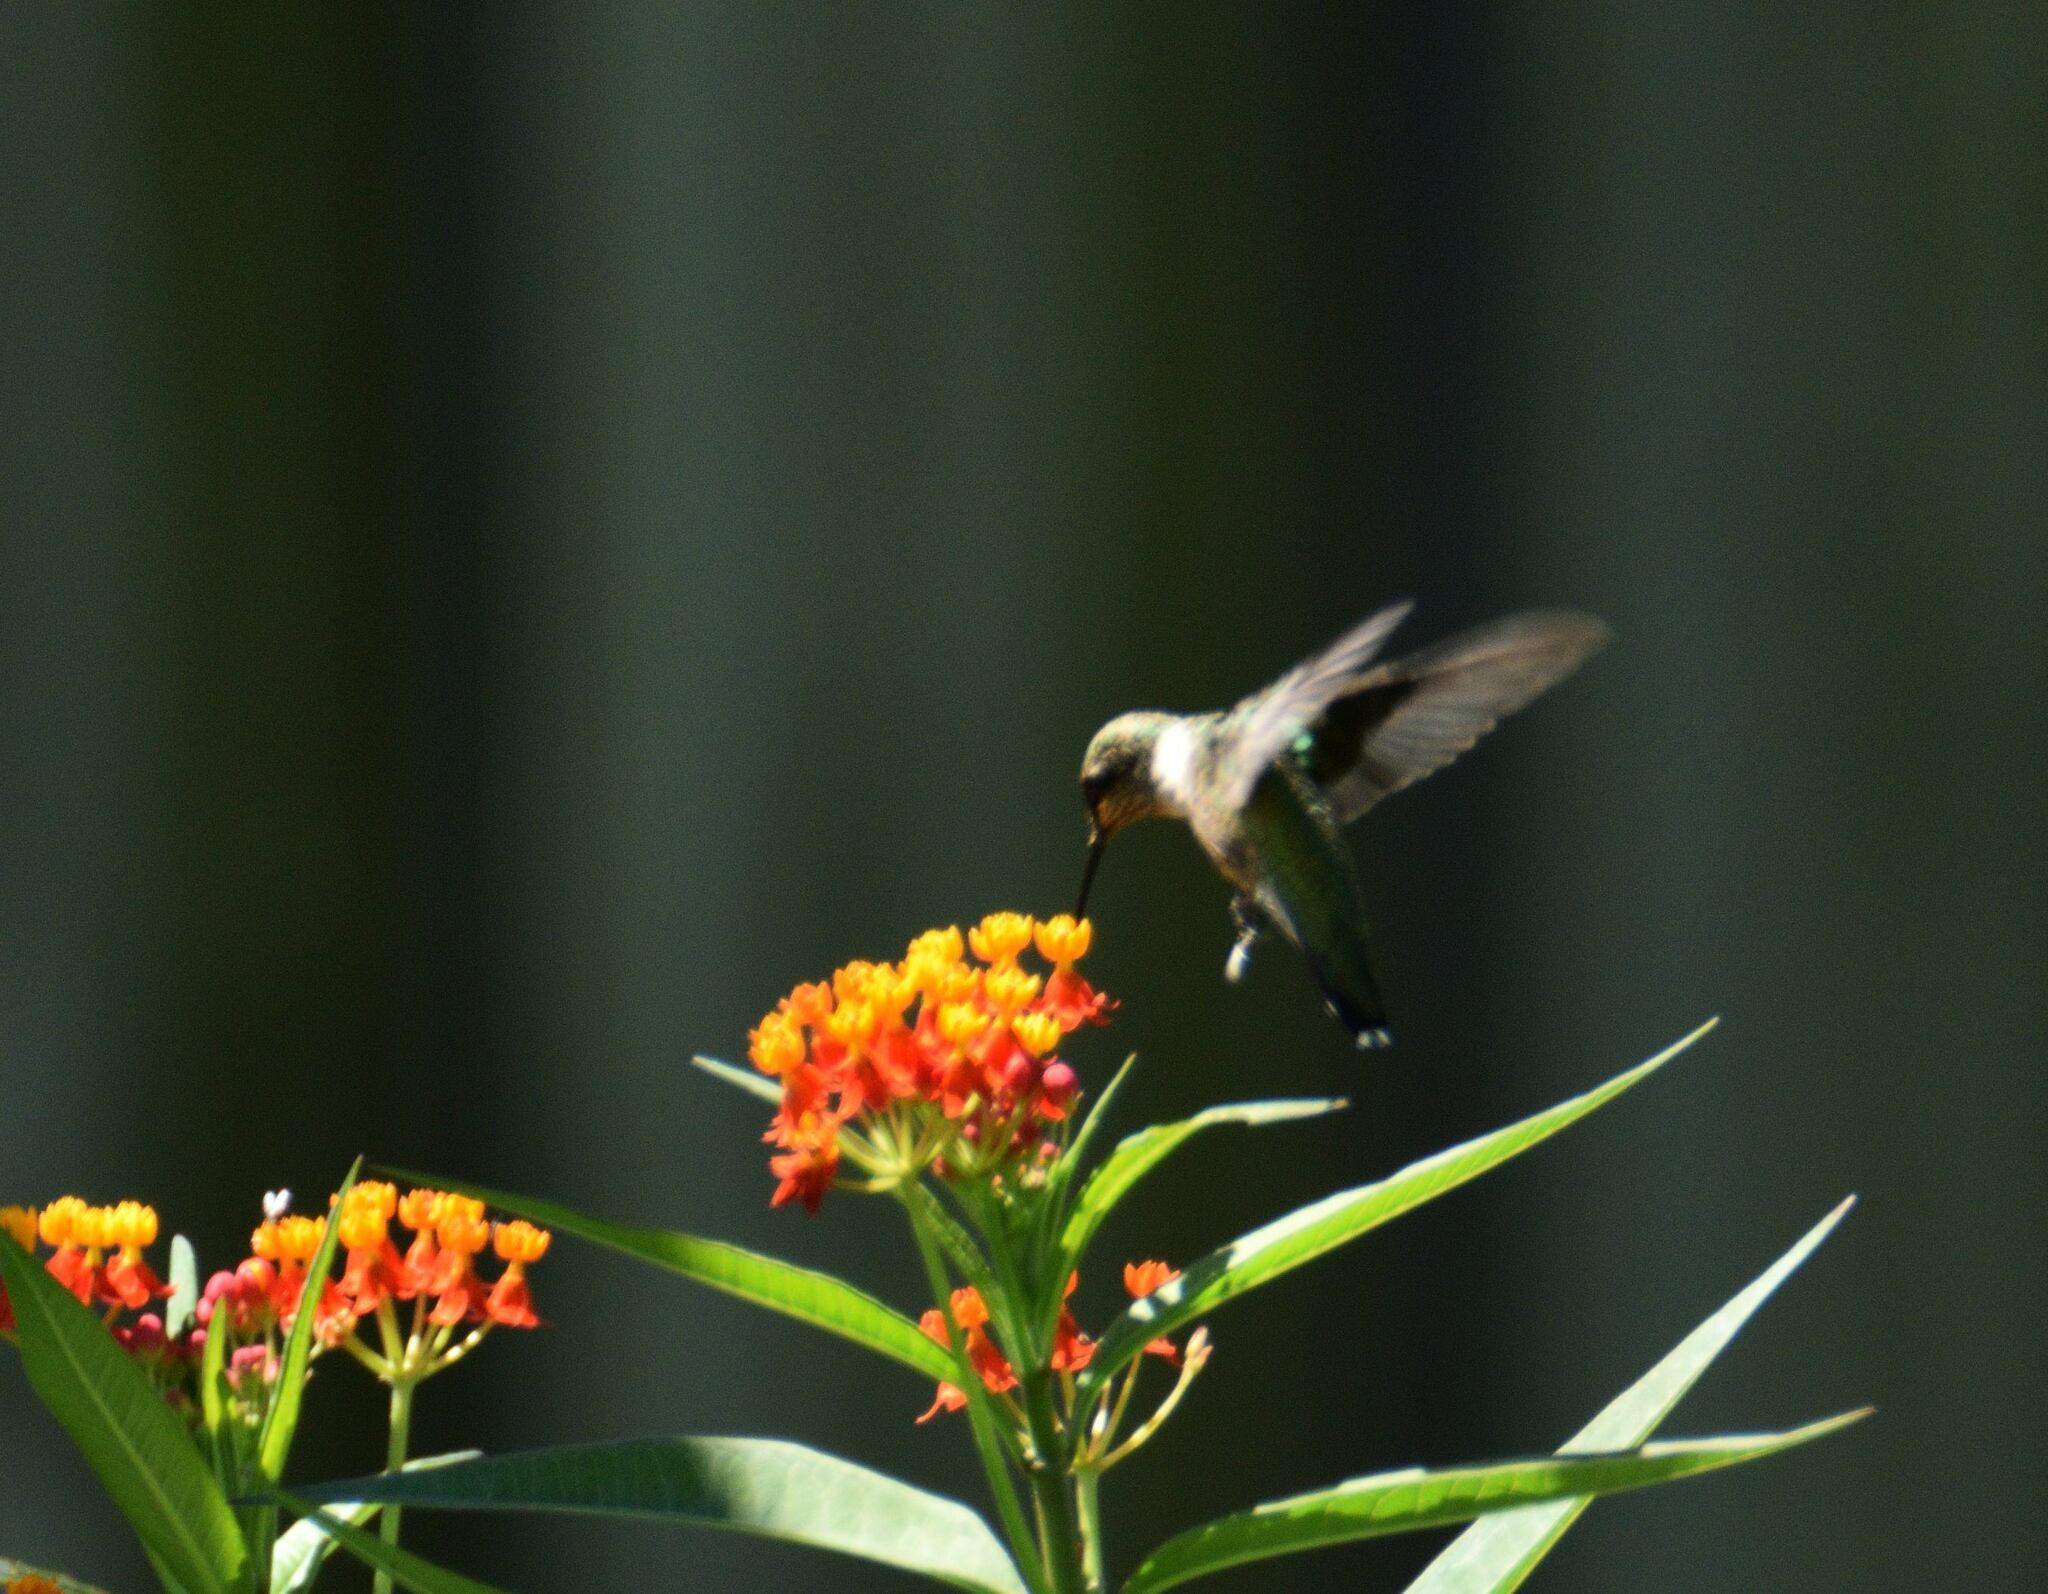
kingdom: Animalia
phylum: Chordata
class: Aves
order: Apodiformes
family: Trochilidae
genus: Archilochus
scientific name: Archilochus colubris
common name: Ruby-throated hummingbird
